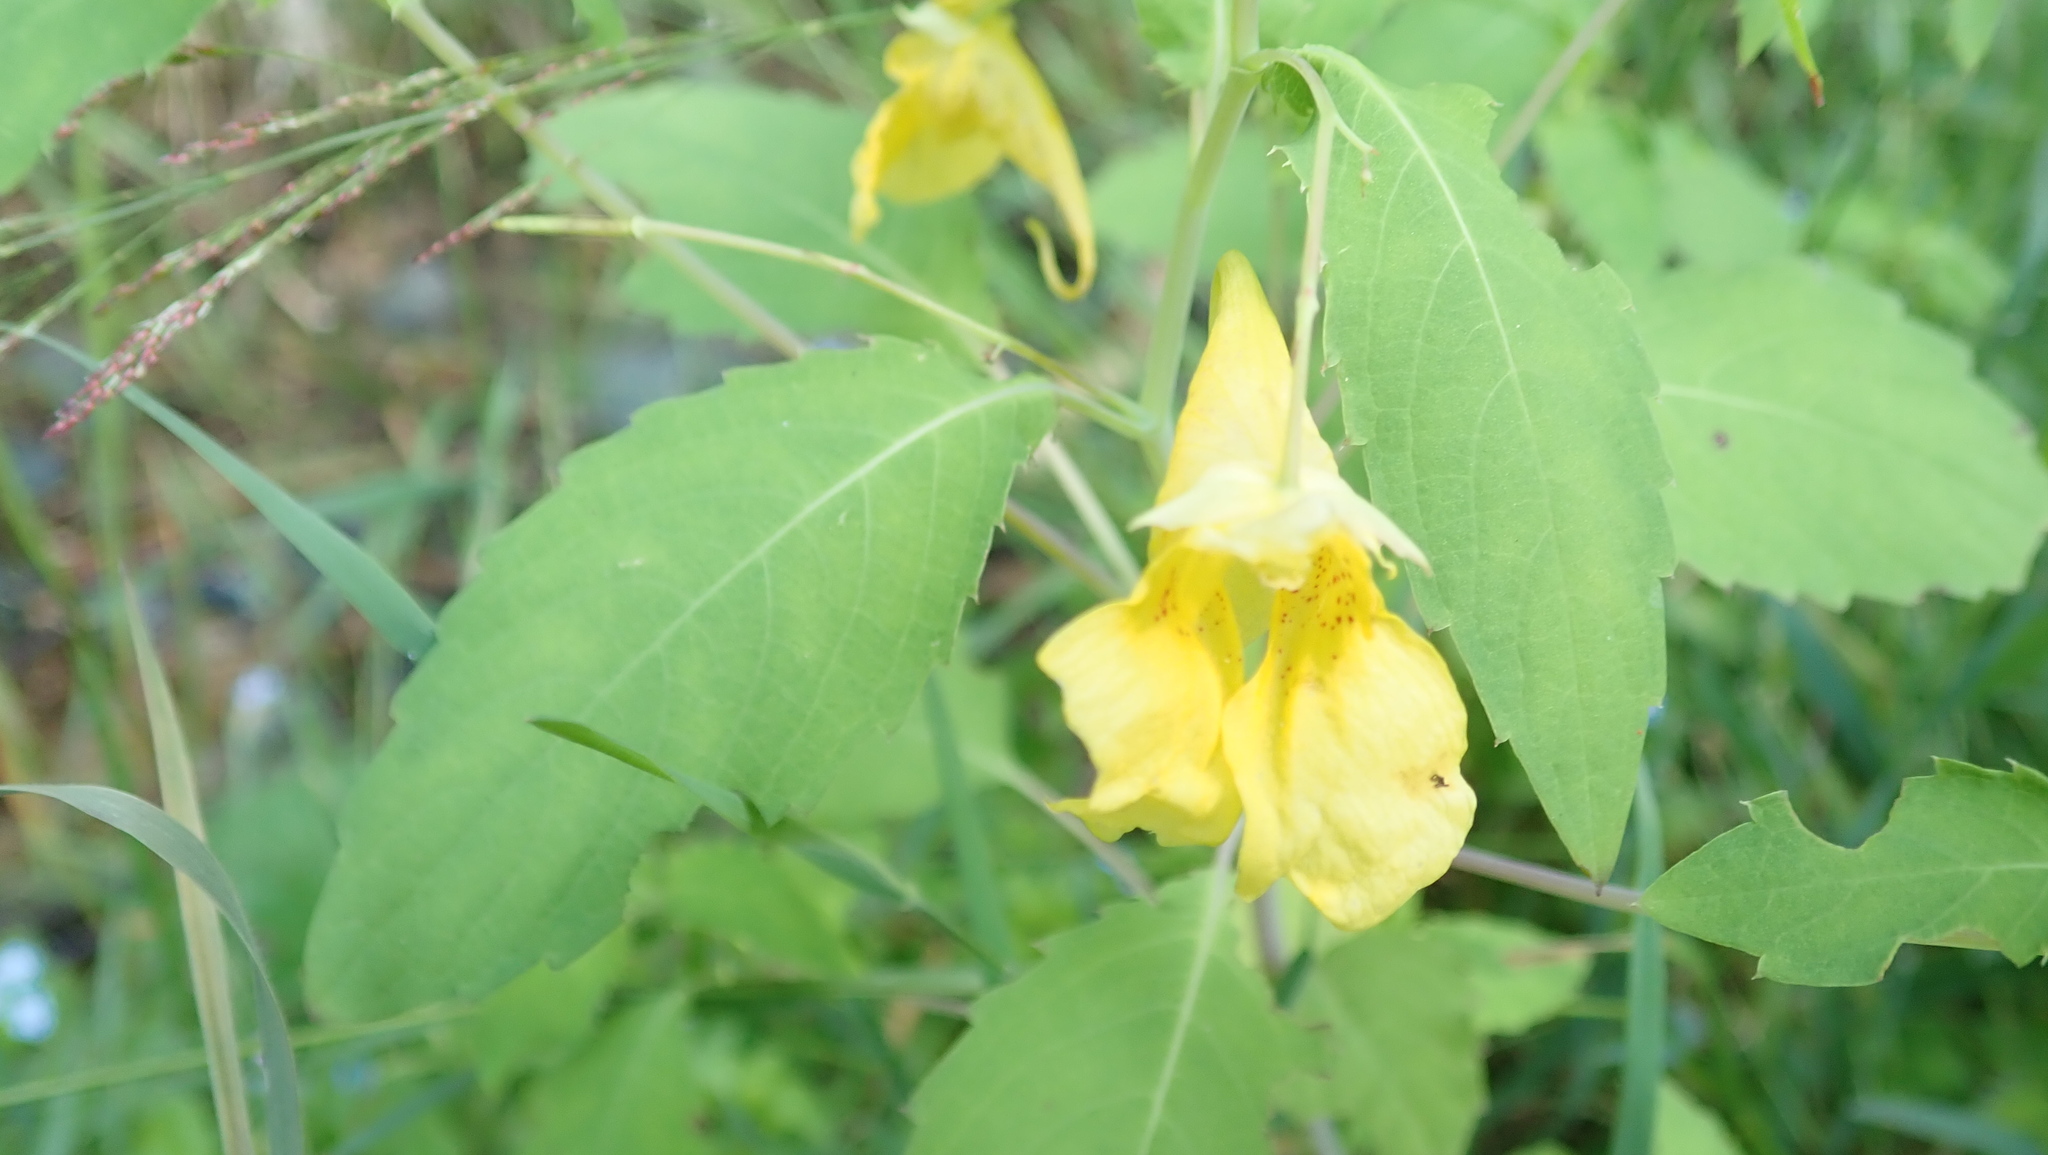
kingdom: Plantae
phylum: Tracheophyta
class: Magnoliopsida
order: Ericales
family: Balsaminaceae
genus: Impatiens
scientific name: Impatiens noli-tangere
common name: Touch-me-not balsam
